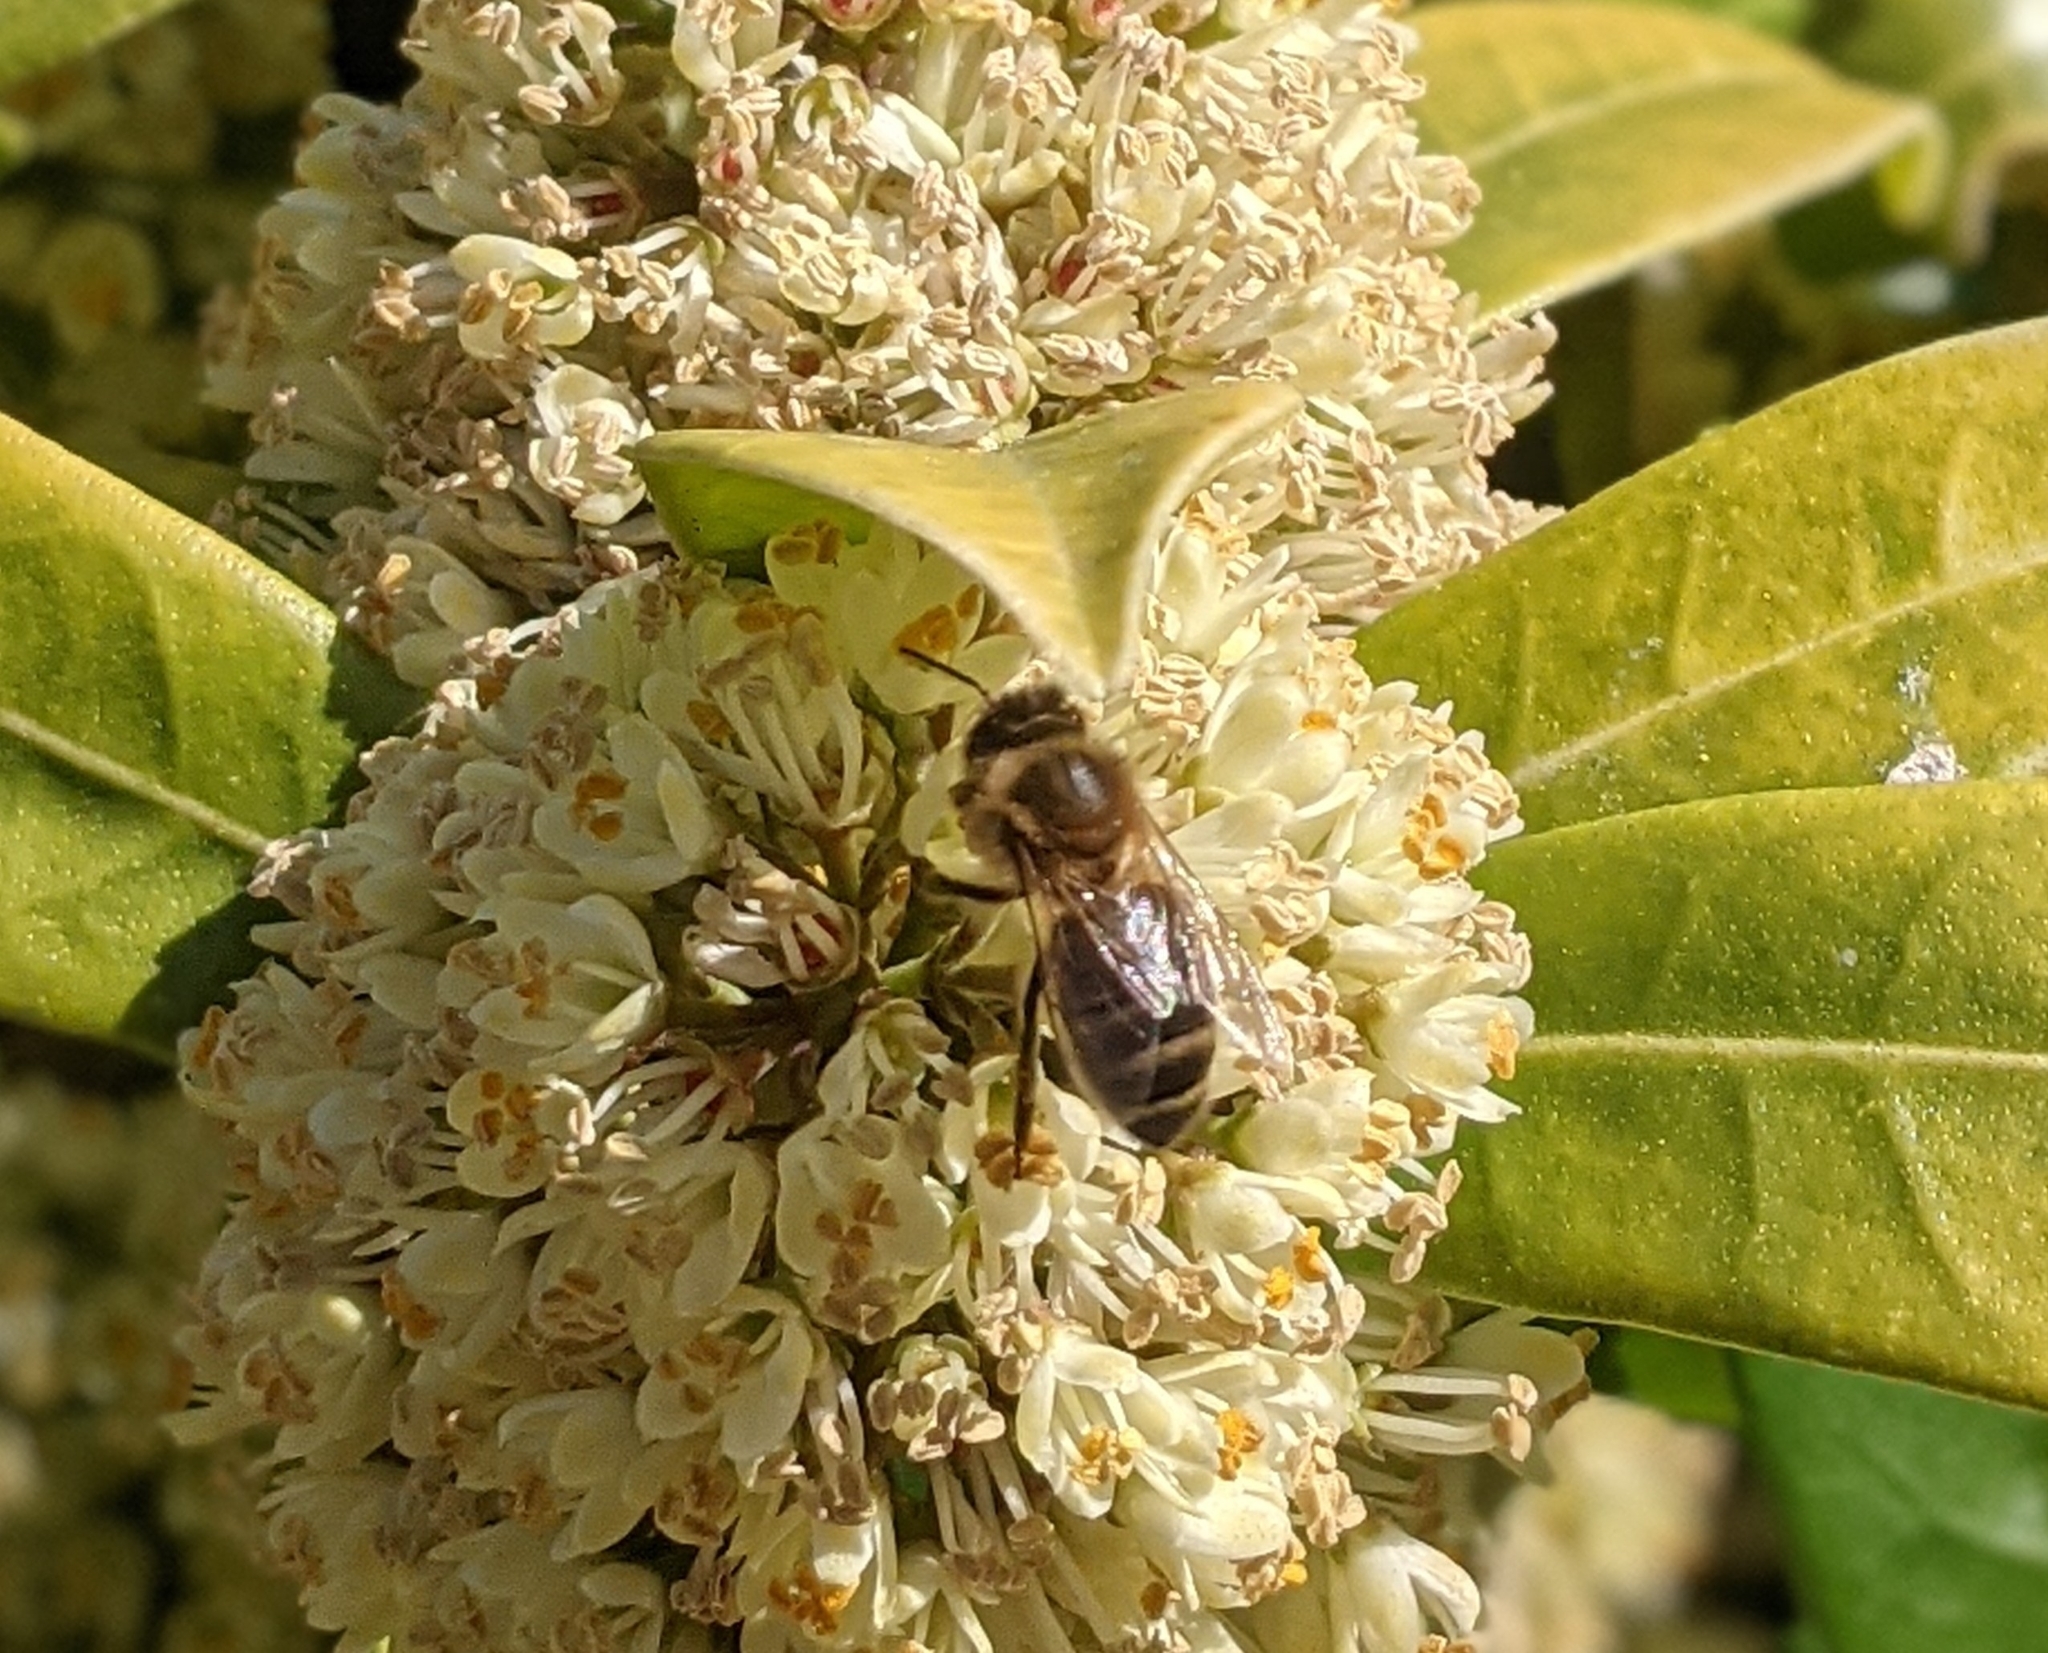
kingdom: Animalia
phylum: Arthropoda
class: Insecta
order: Hymenoptera
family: Apidae
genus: Apis
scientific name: Apis mellifera
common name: Honey bee
